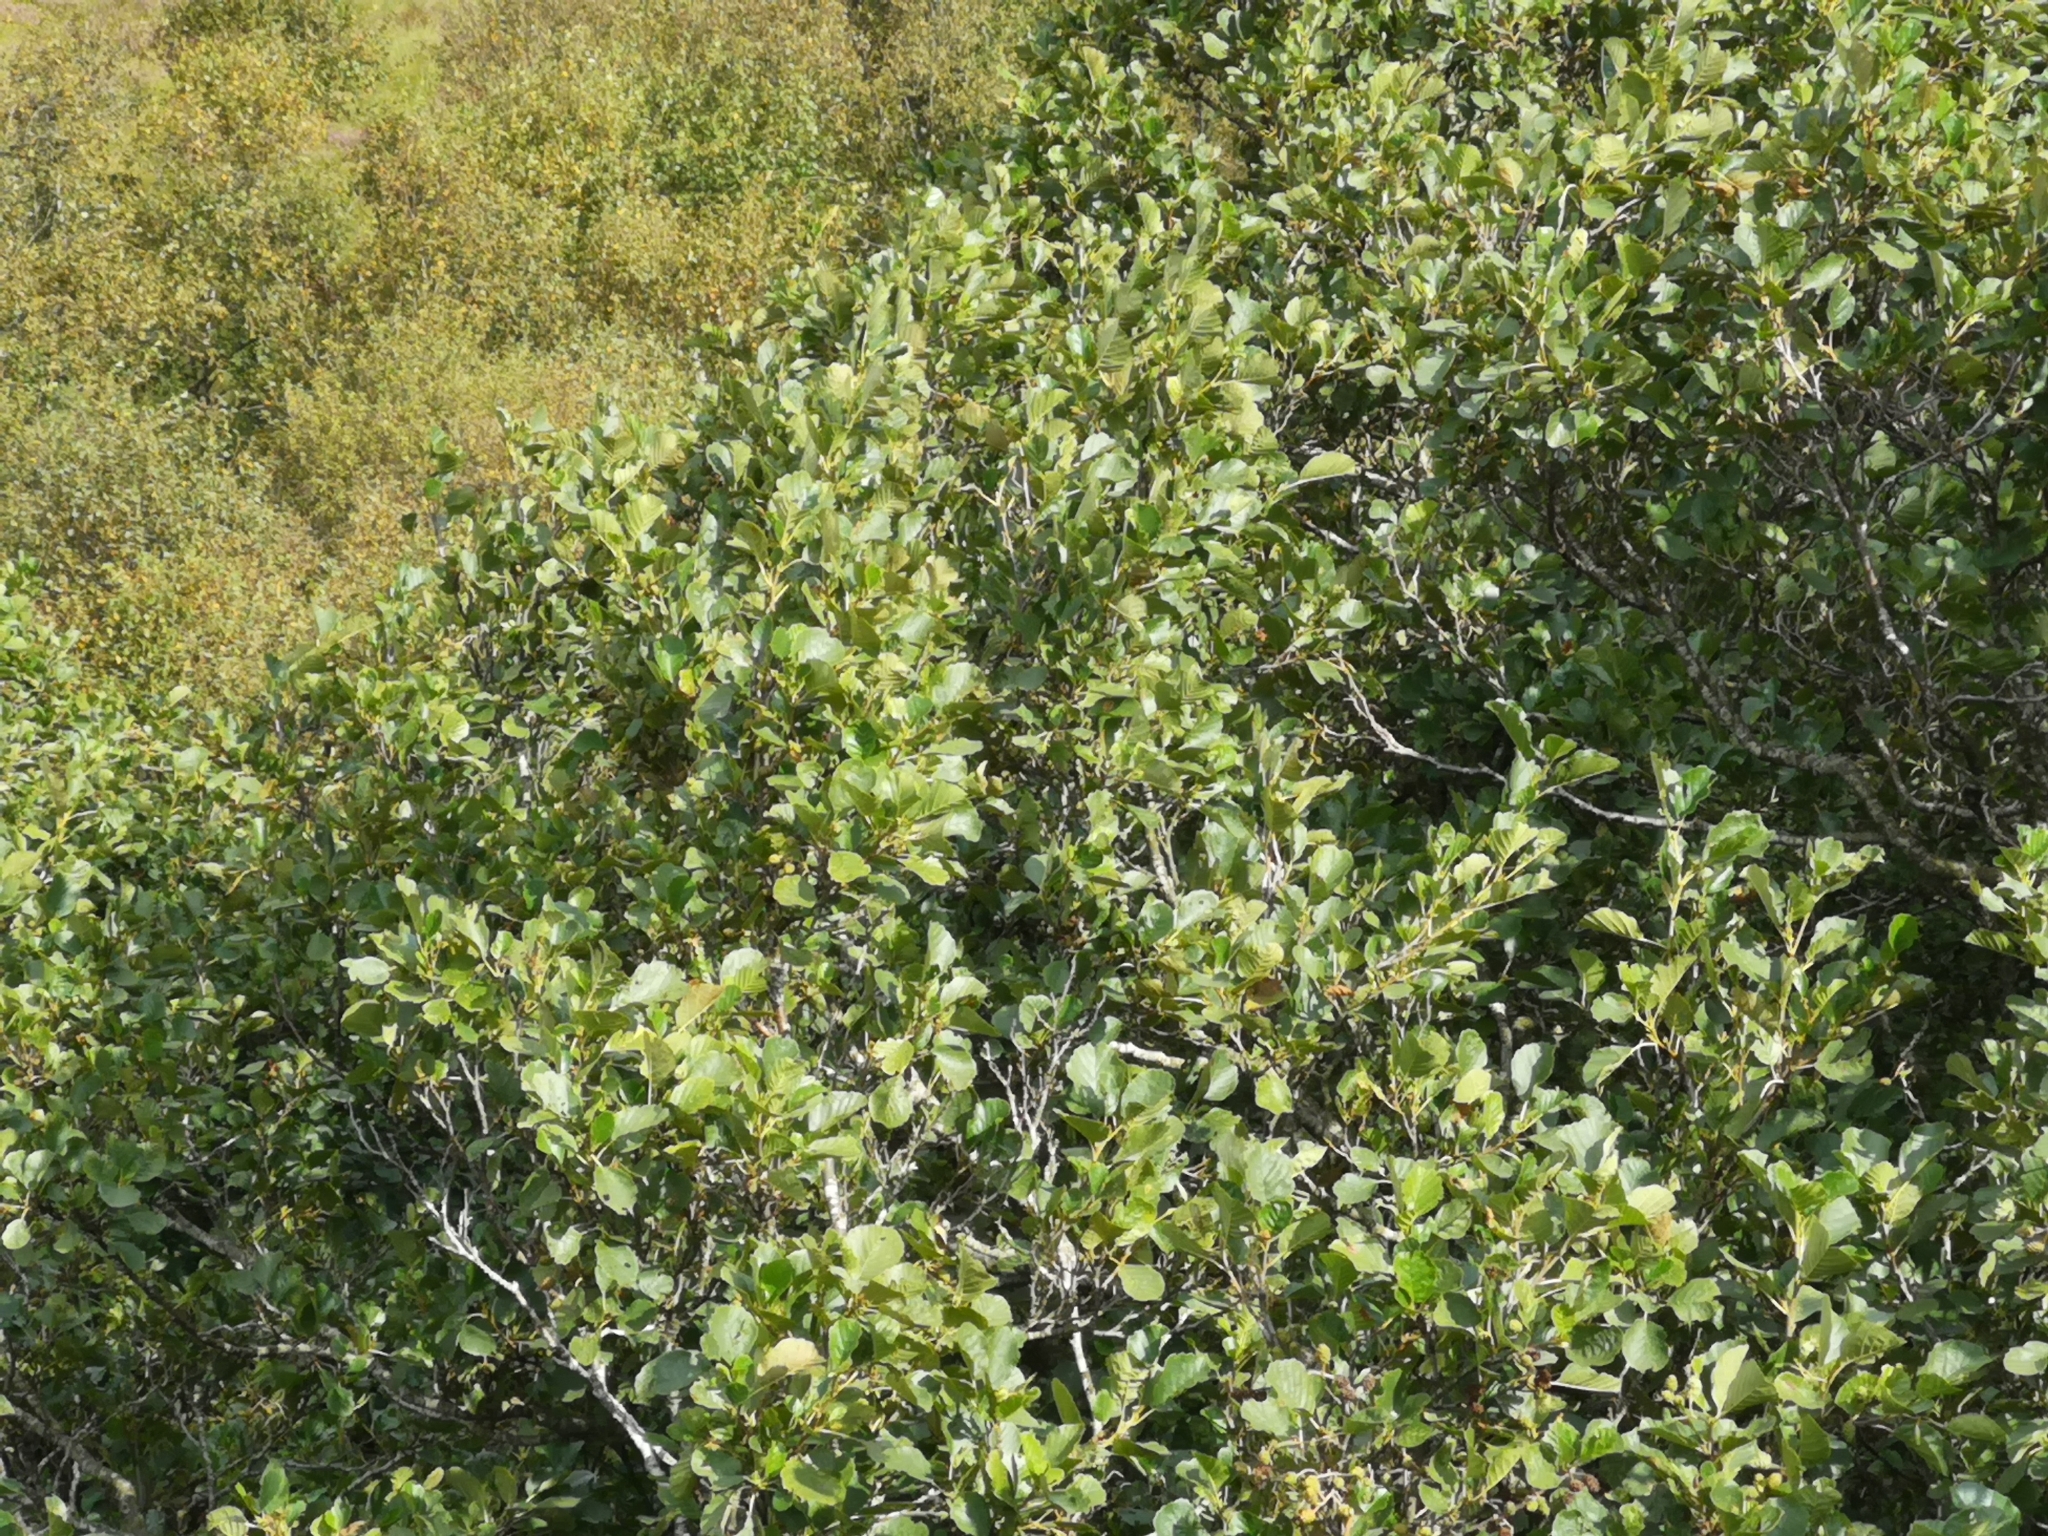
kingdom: Plantae
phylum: Tracheophyta
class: Magnoliopsida
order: Fagales
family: Betulaceae
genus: Alnus
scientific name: Alnus glutinosa
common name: Black alder
